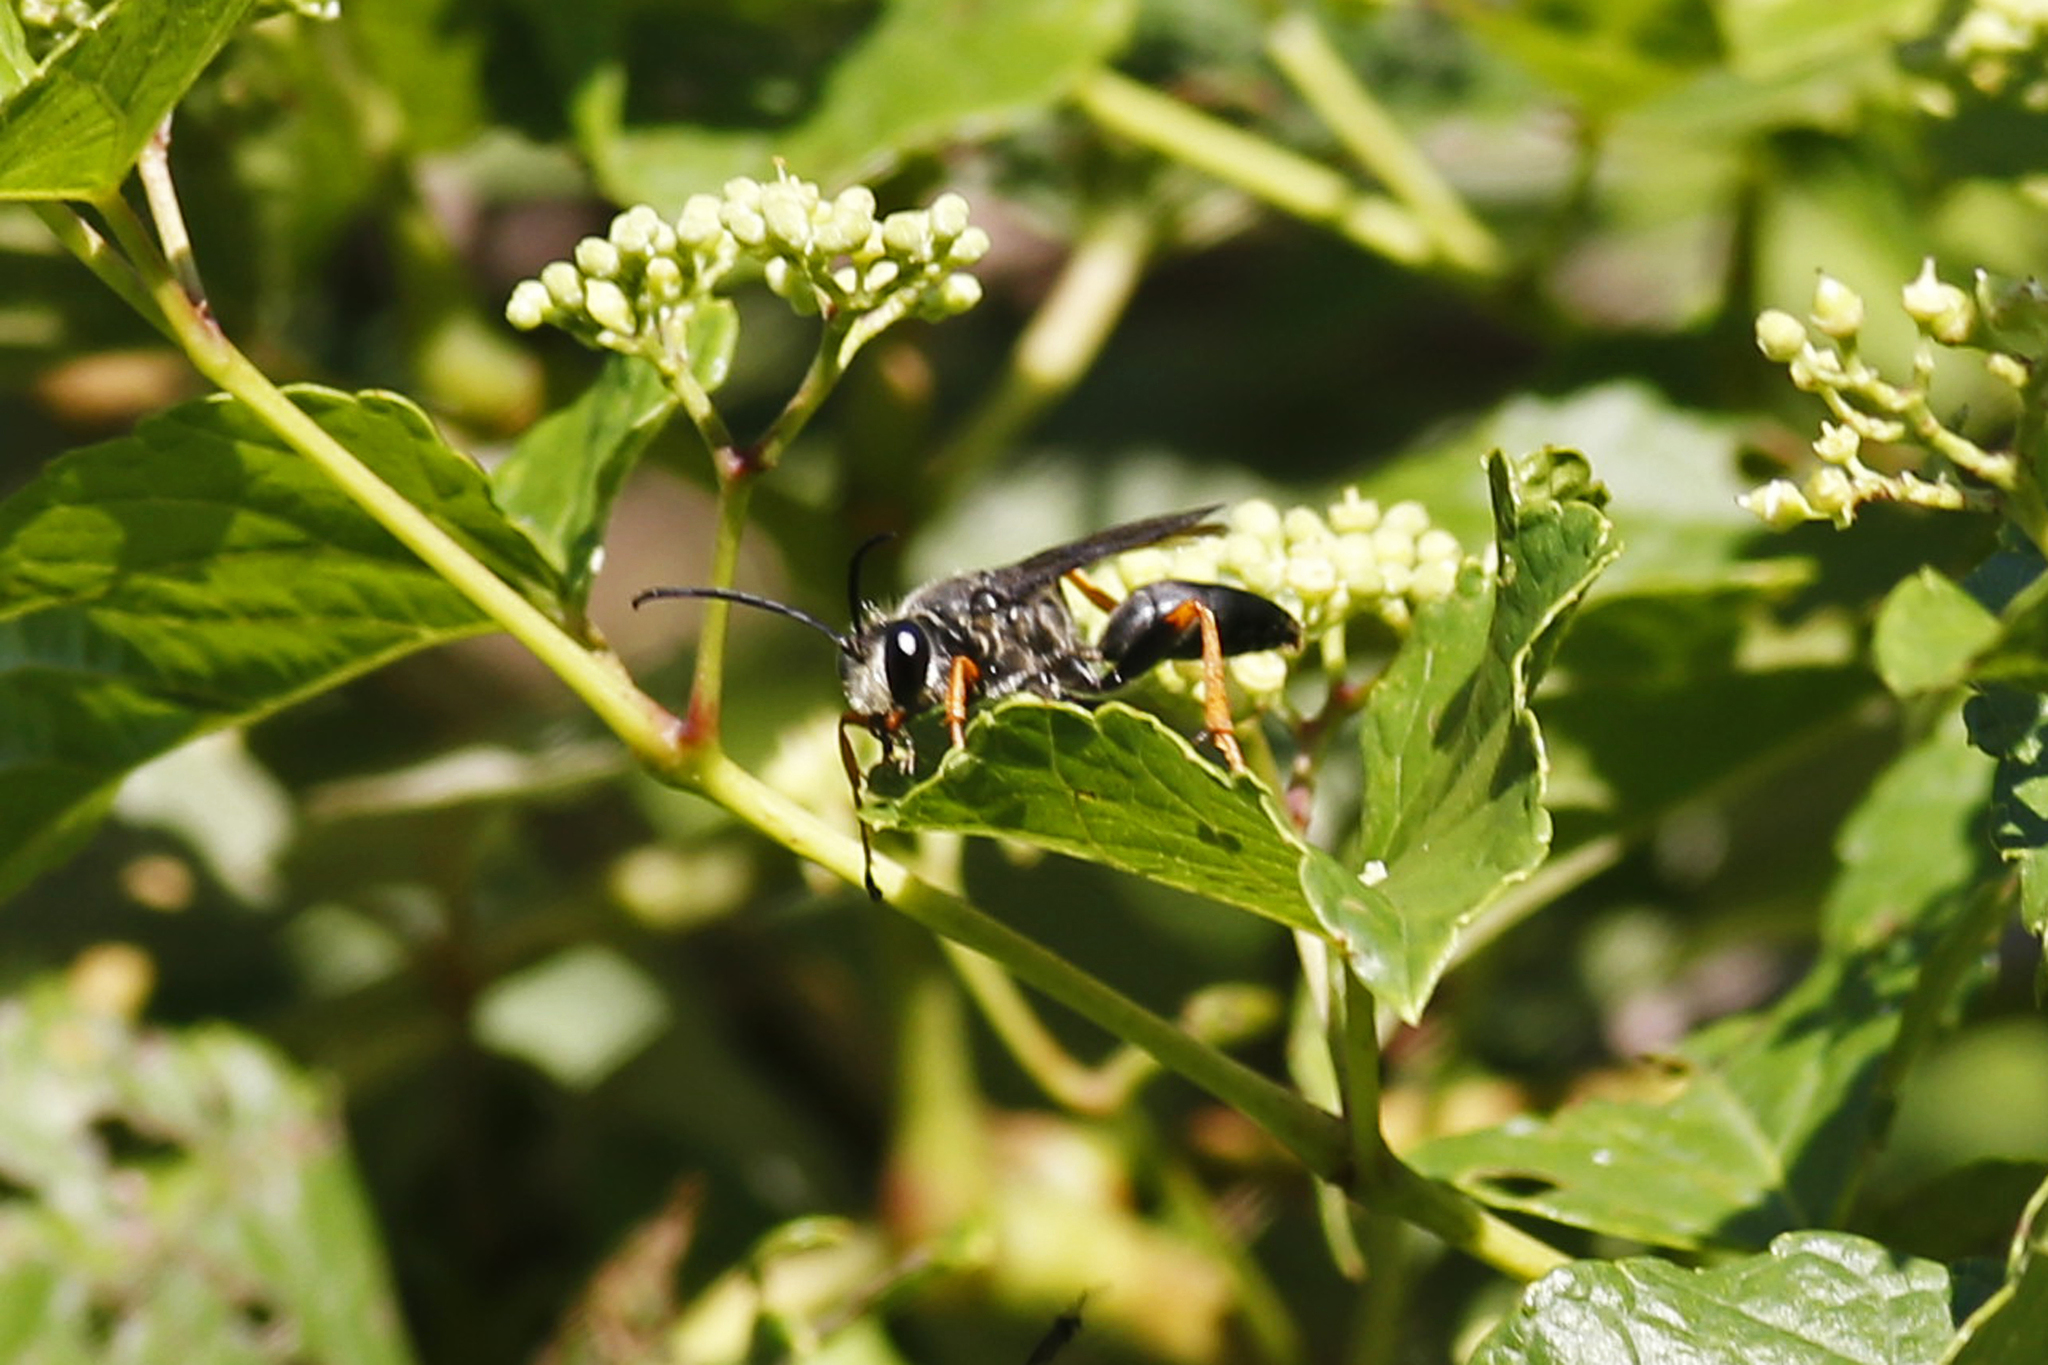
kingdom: Animalia
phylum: Arthropoda
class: Insecta
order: Hymenoptera
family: Sphecidae
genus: Sphex
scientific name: Sphex nudus
